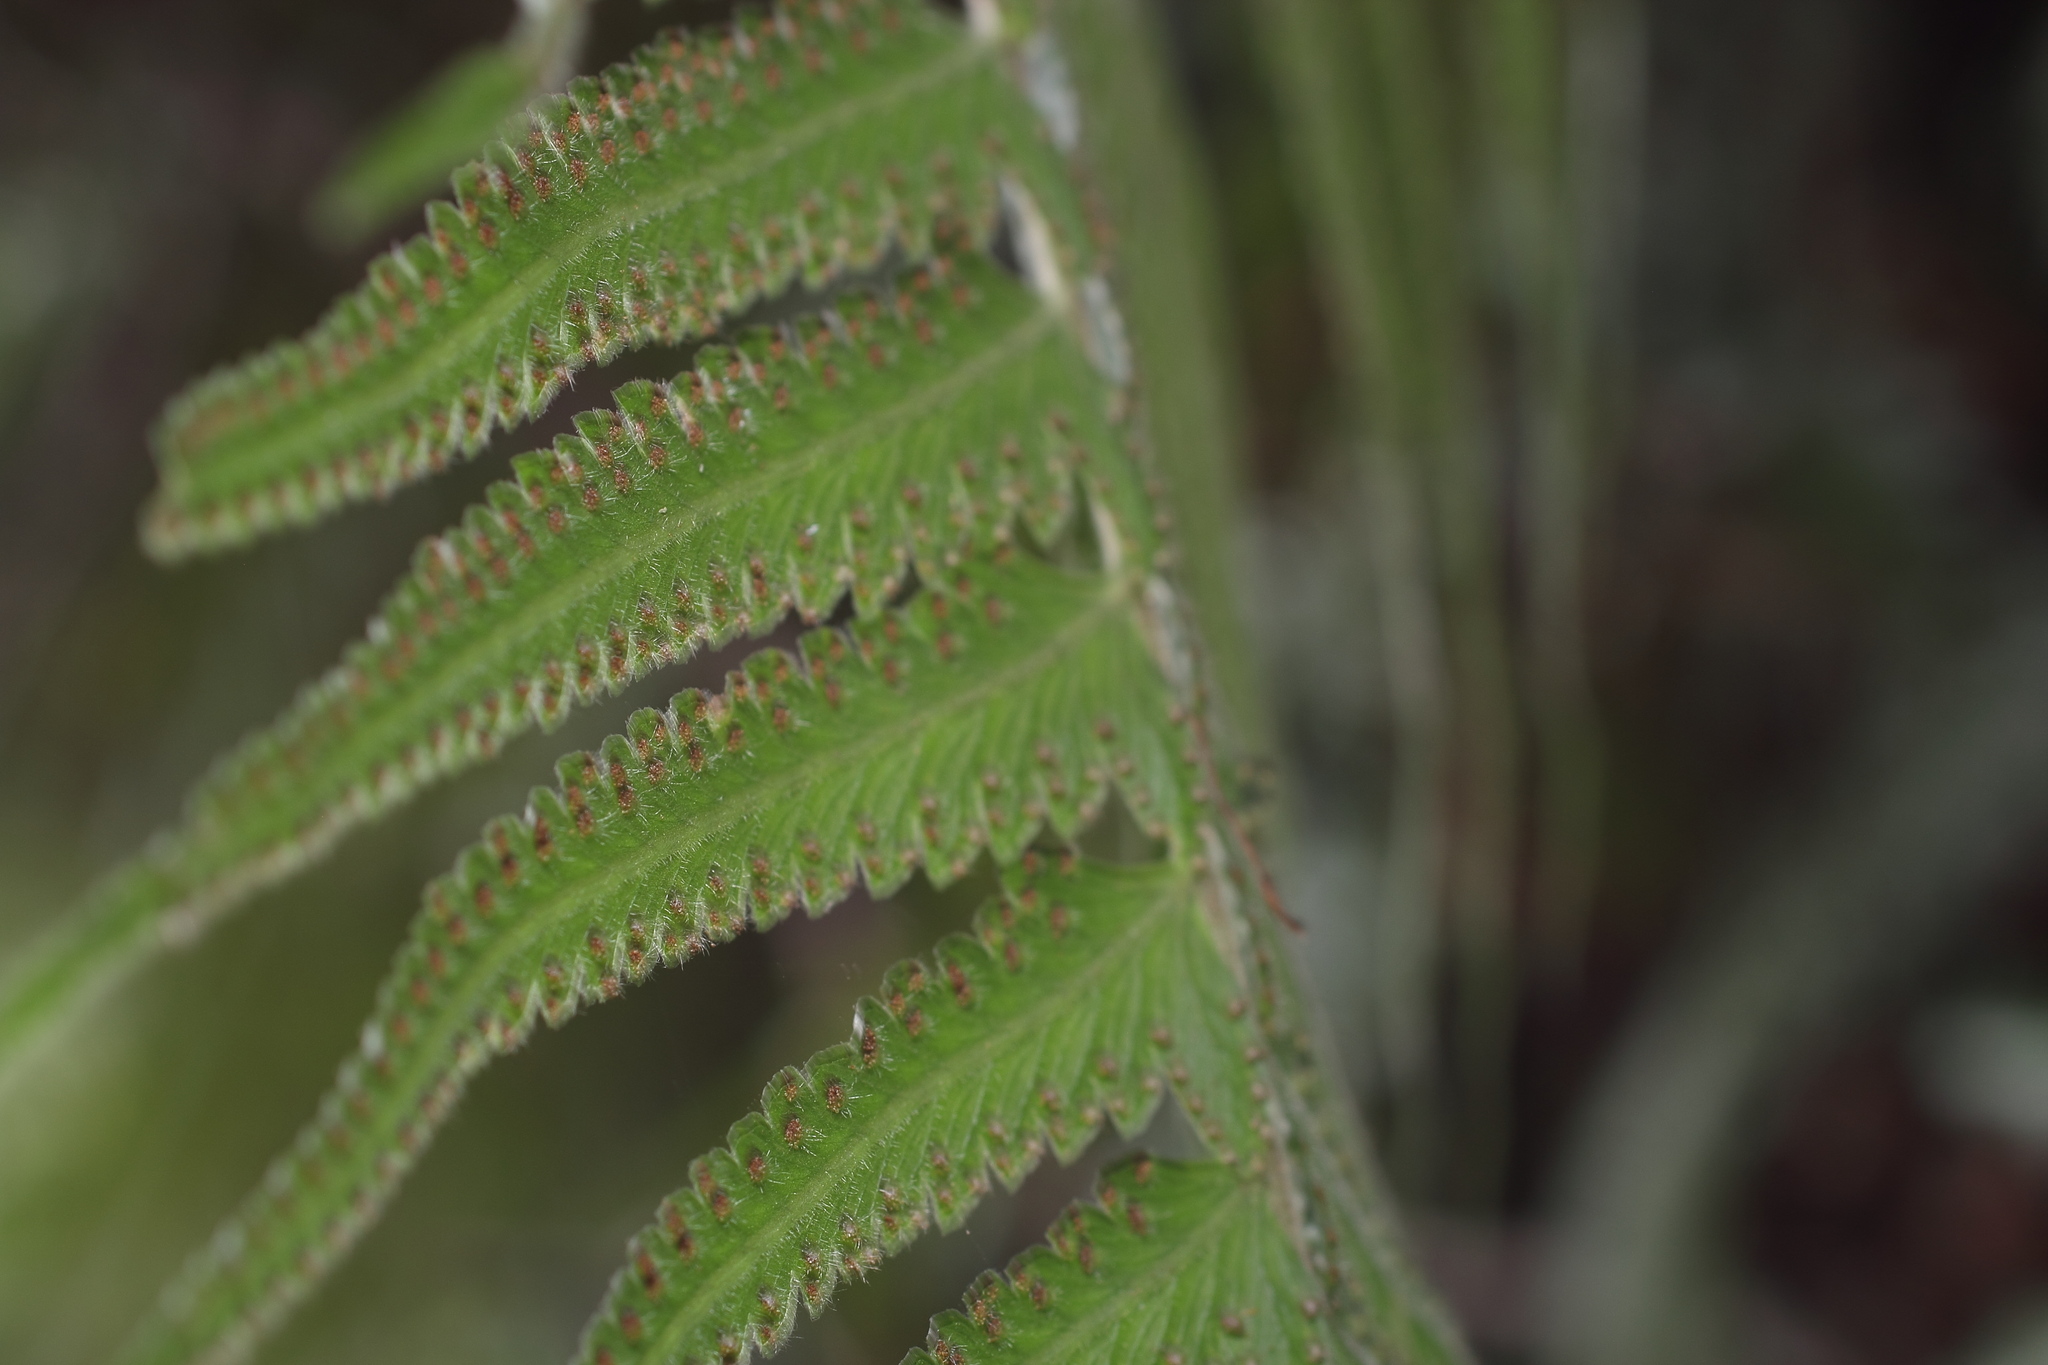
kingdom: Plantae
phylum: Tracheophyta
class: Polypodiopsida
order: Polypodiales
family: Dennstaedtiaceae
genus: Microlepia
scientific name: Microlepia marginata
